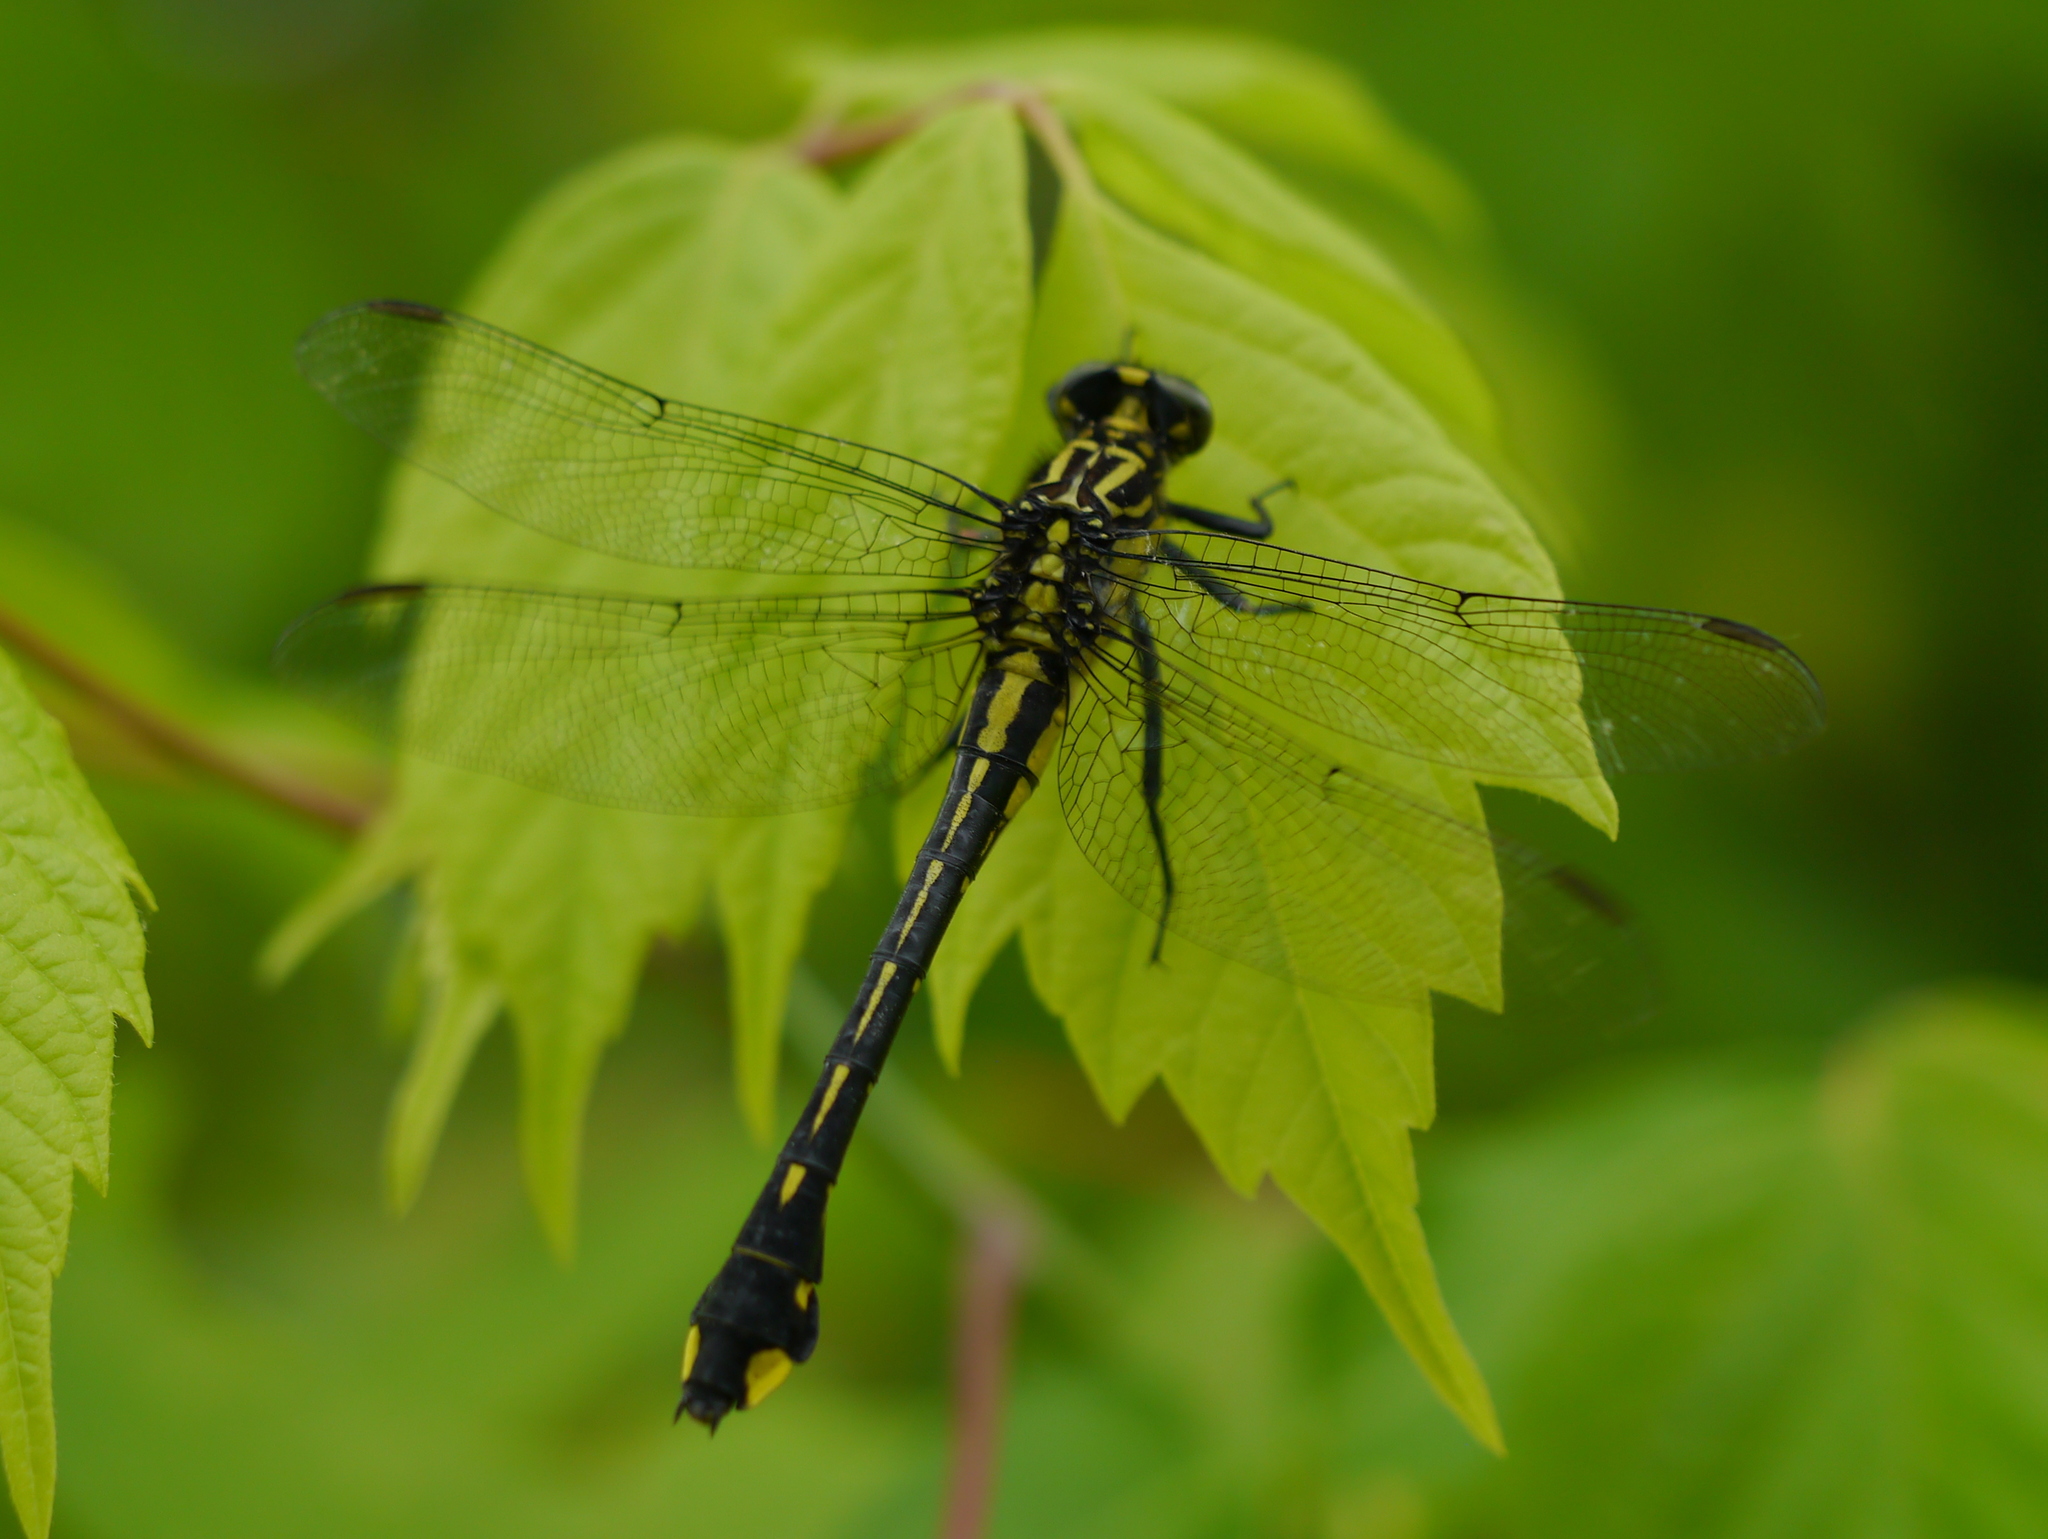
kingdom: Animalia
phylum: Arthropoda
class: Insecta
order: Odonata
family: Gomphidae
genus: Gomphurus
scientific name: Gomphurus vastus
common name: Cobra clubtail
